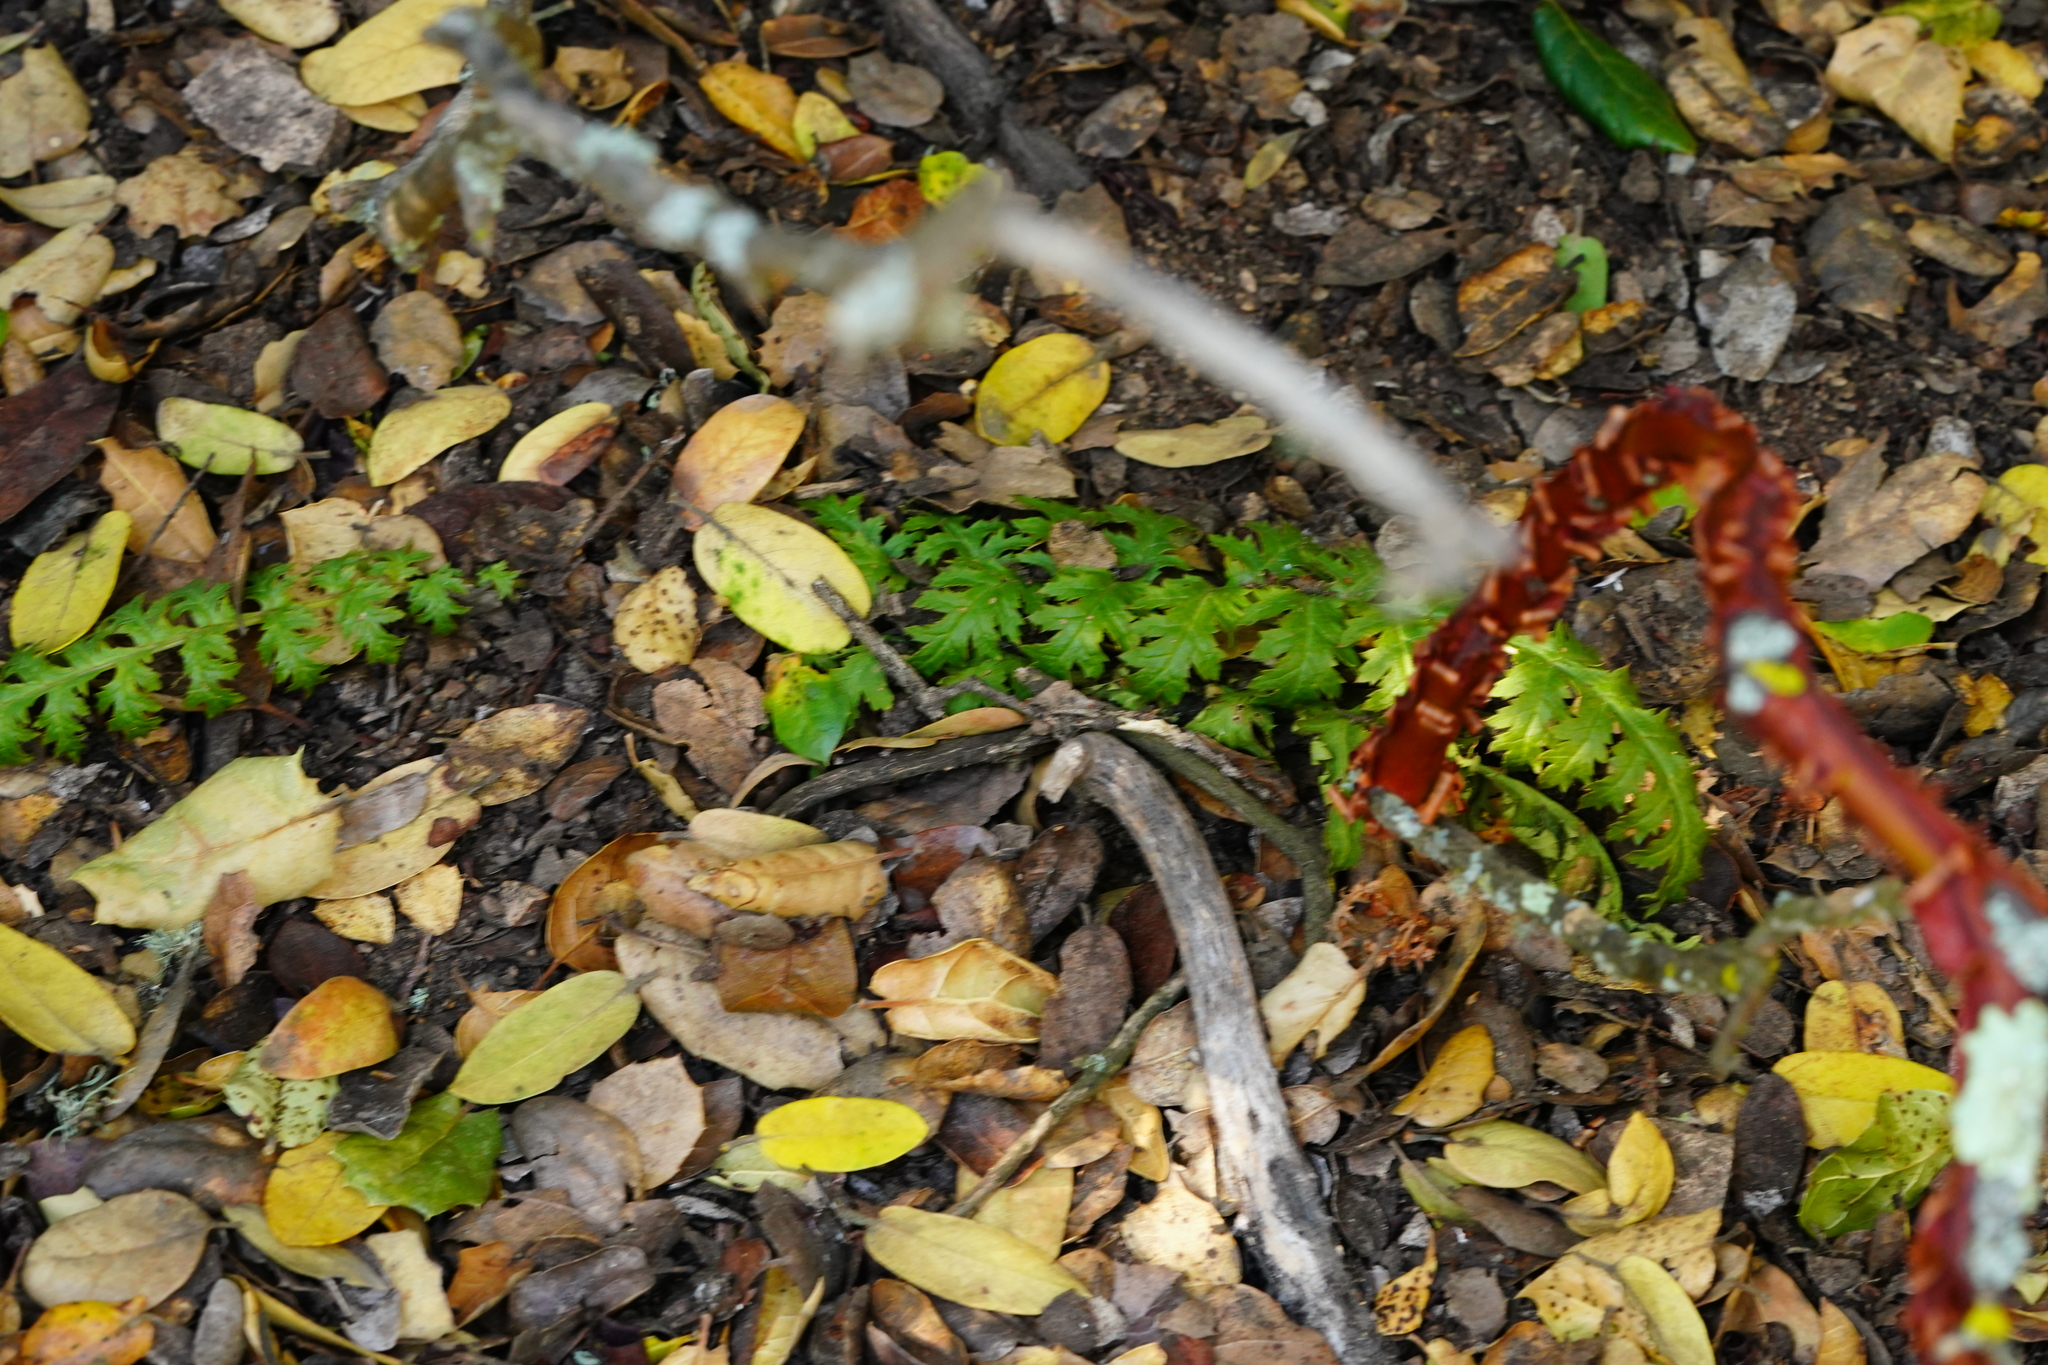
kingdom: Plantae
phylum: Tracheophyta
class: Magnoliopsida
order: Lamiales
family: Orobanchaceae
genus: Pedicularis
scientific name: Pedicularis densiflora
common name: Indian warrior
